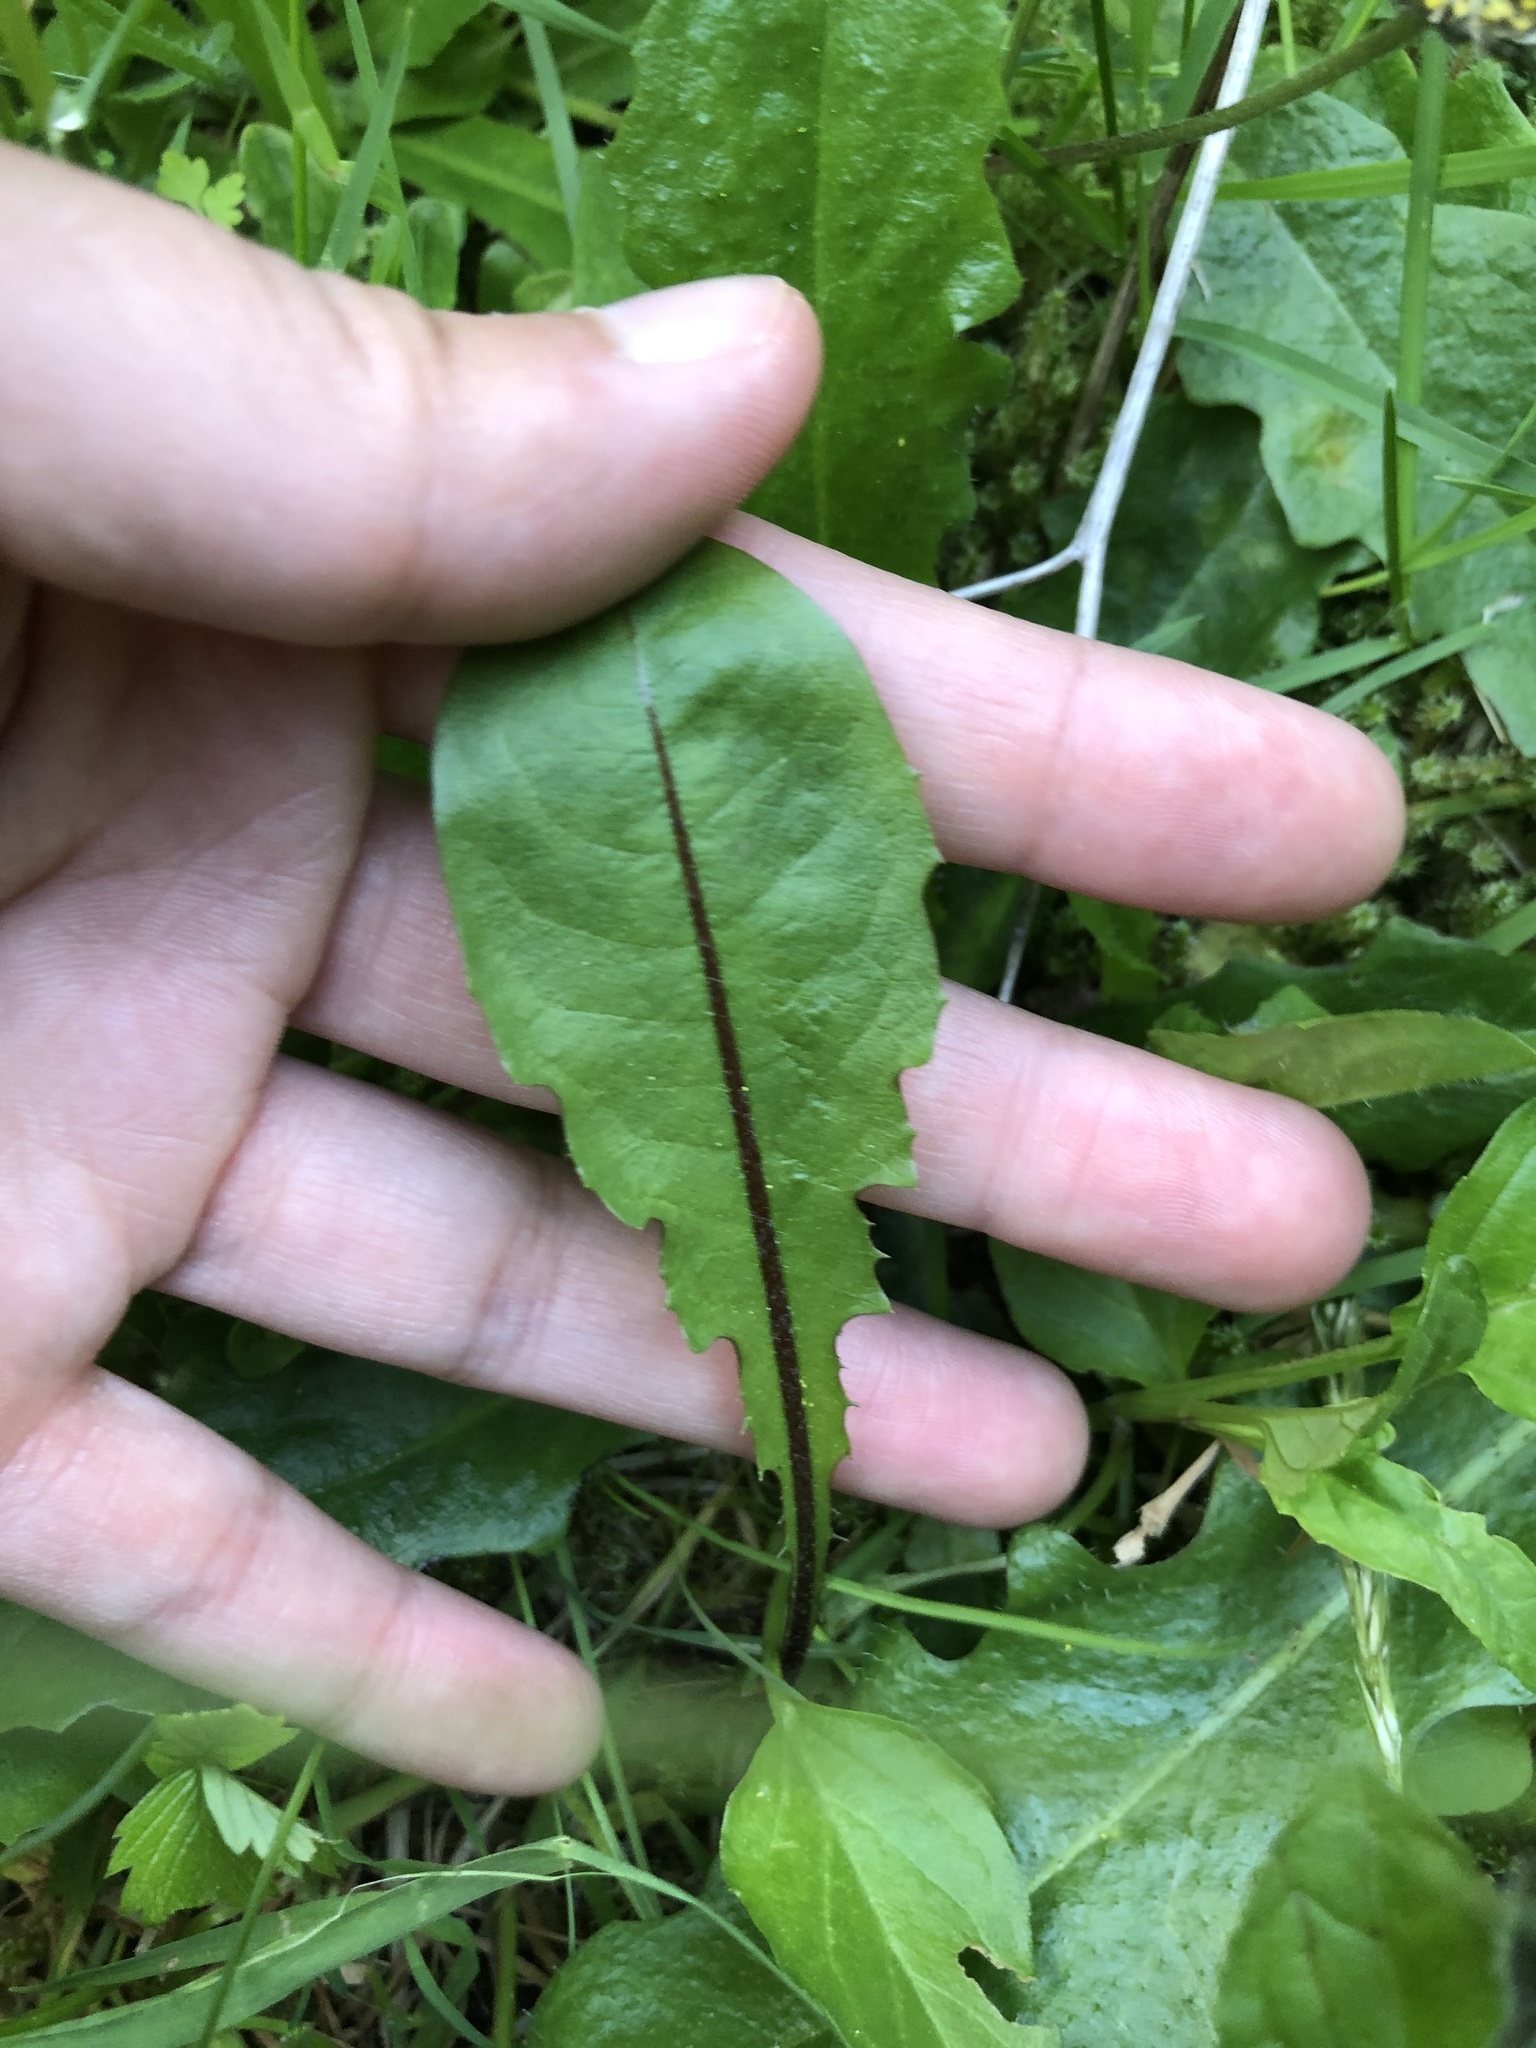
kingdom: Plantae
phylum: Tracheophyta
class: Magnoliopsida
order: Asterales
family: Asteraceae
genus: Taraxacum
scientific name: Taraxacum officinale
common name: Common dandelion
